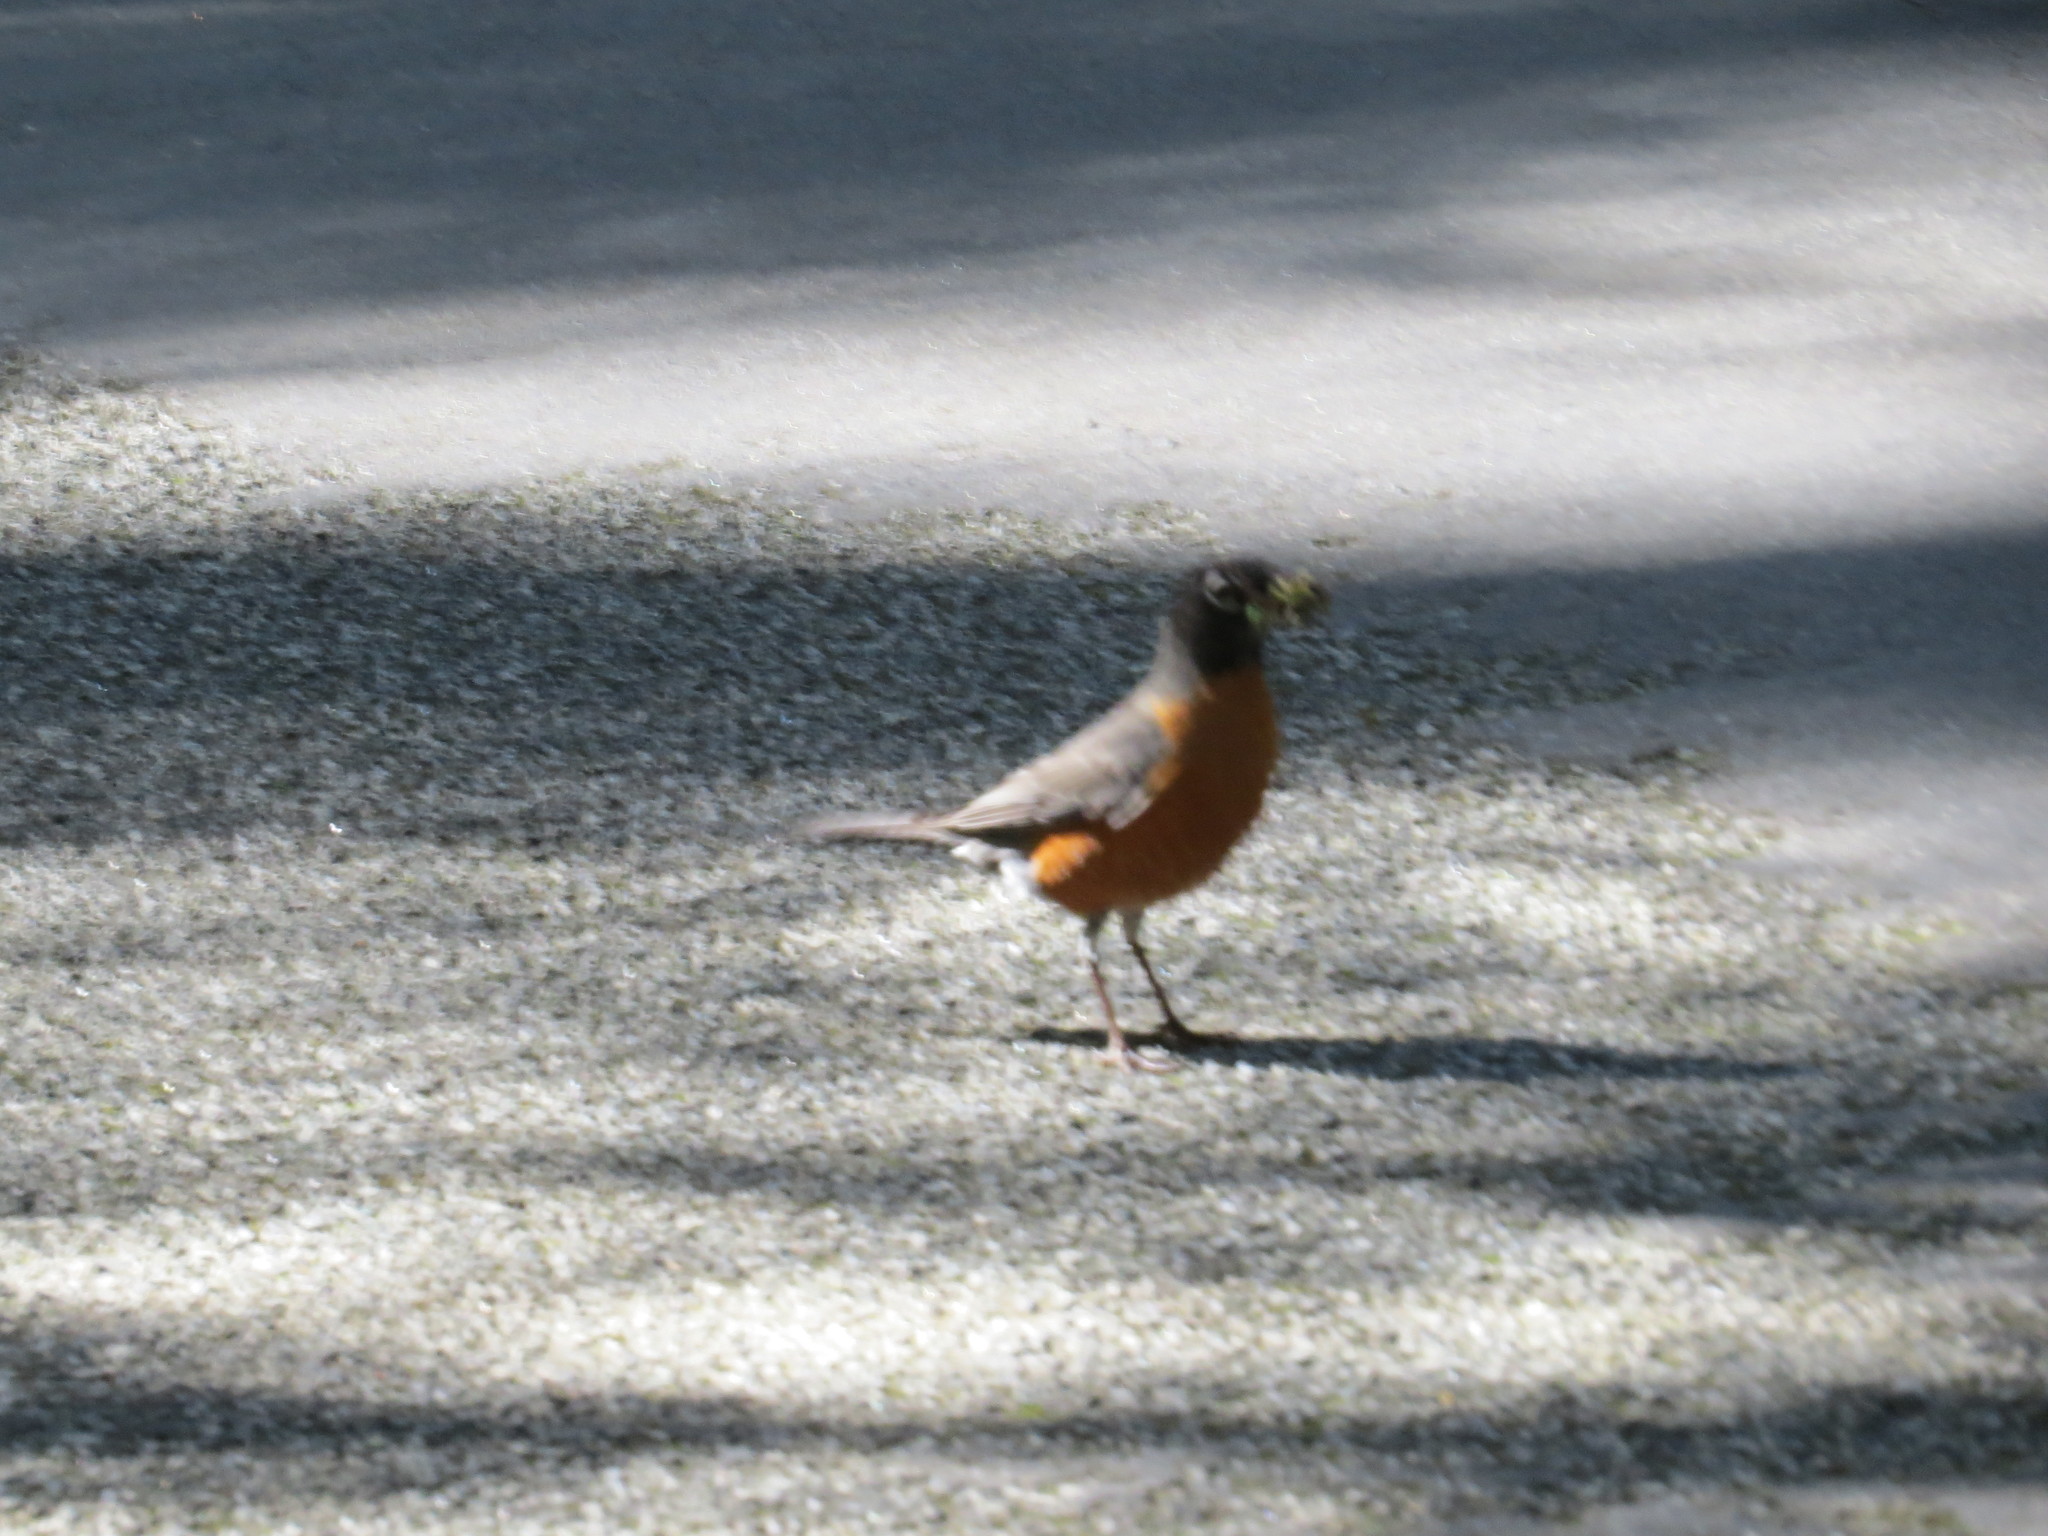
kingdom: Animalia
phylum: Chordata
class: Aves
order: Passeriformes
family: Turdidae
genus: Turdus
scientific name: Turdus migratorius
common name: American robin
